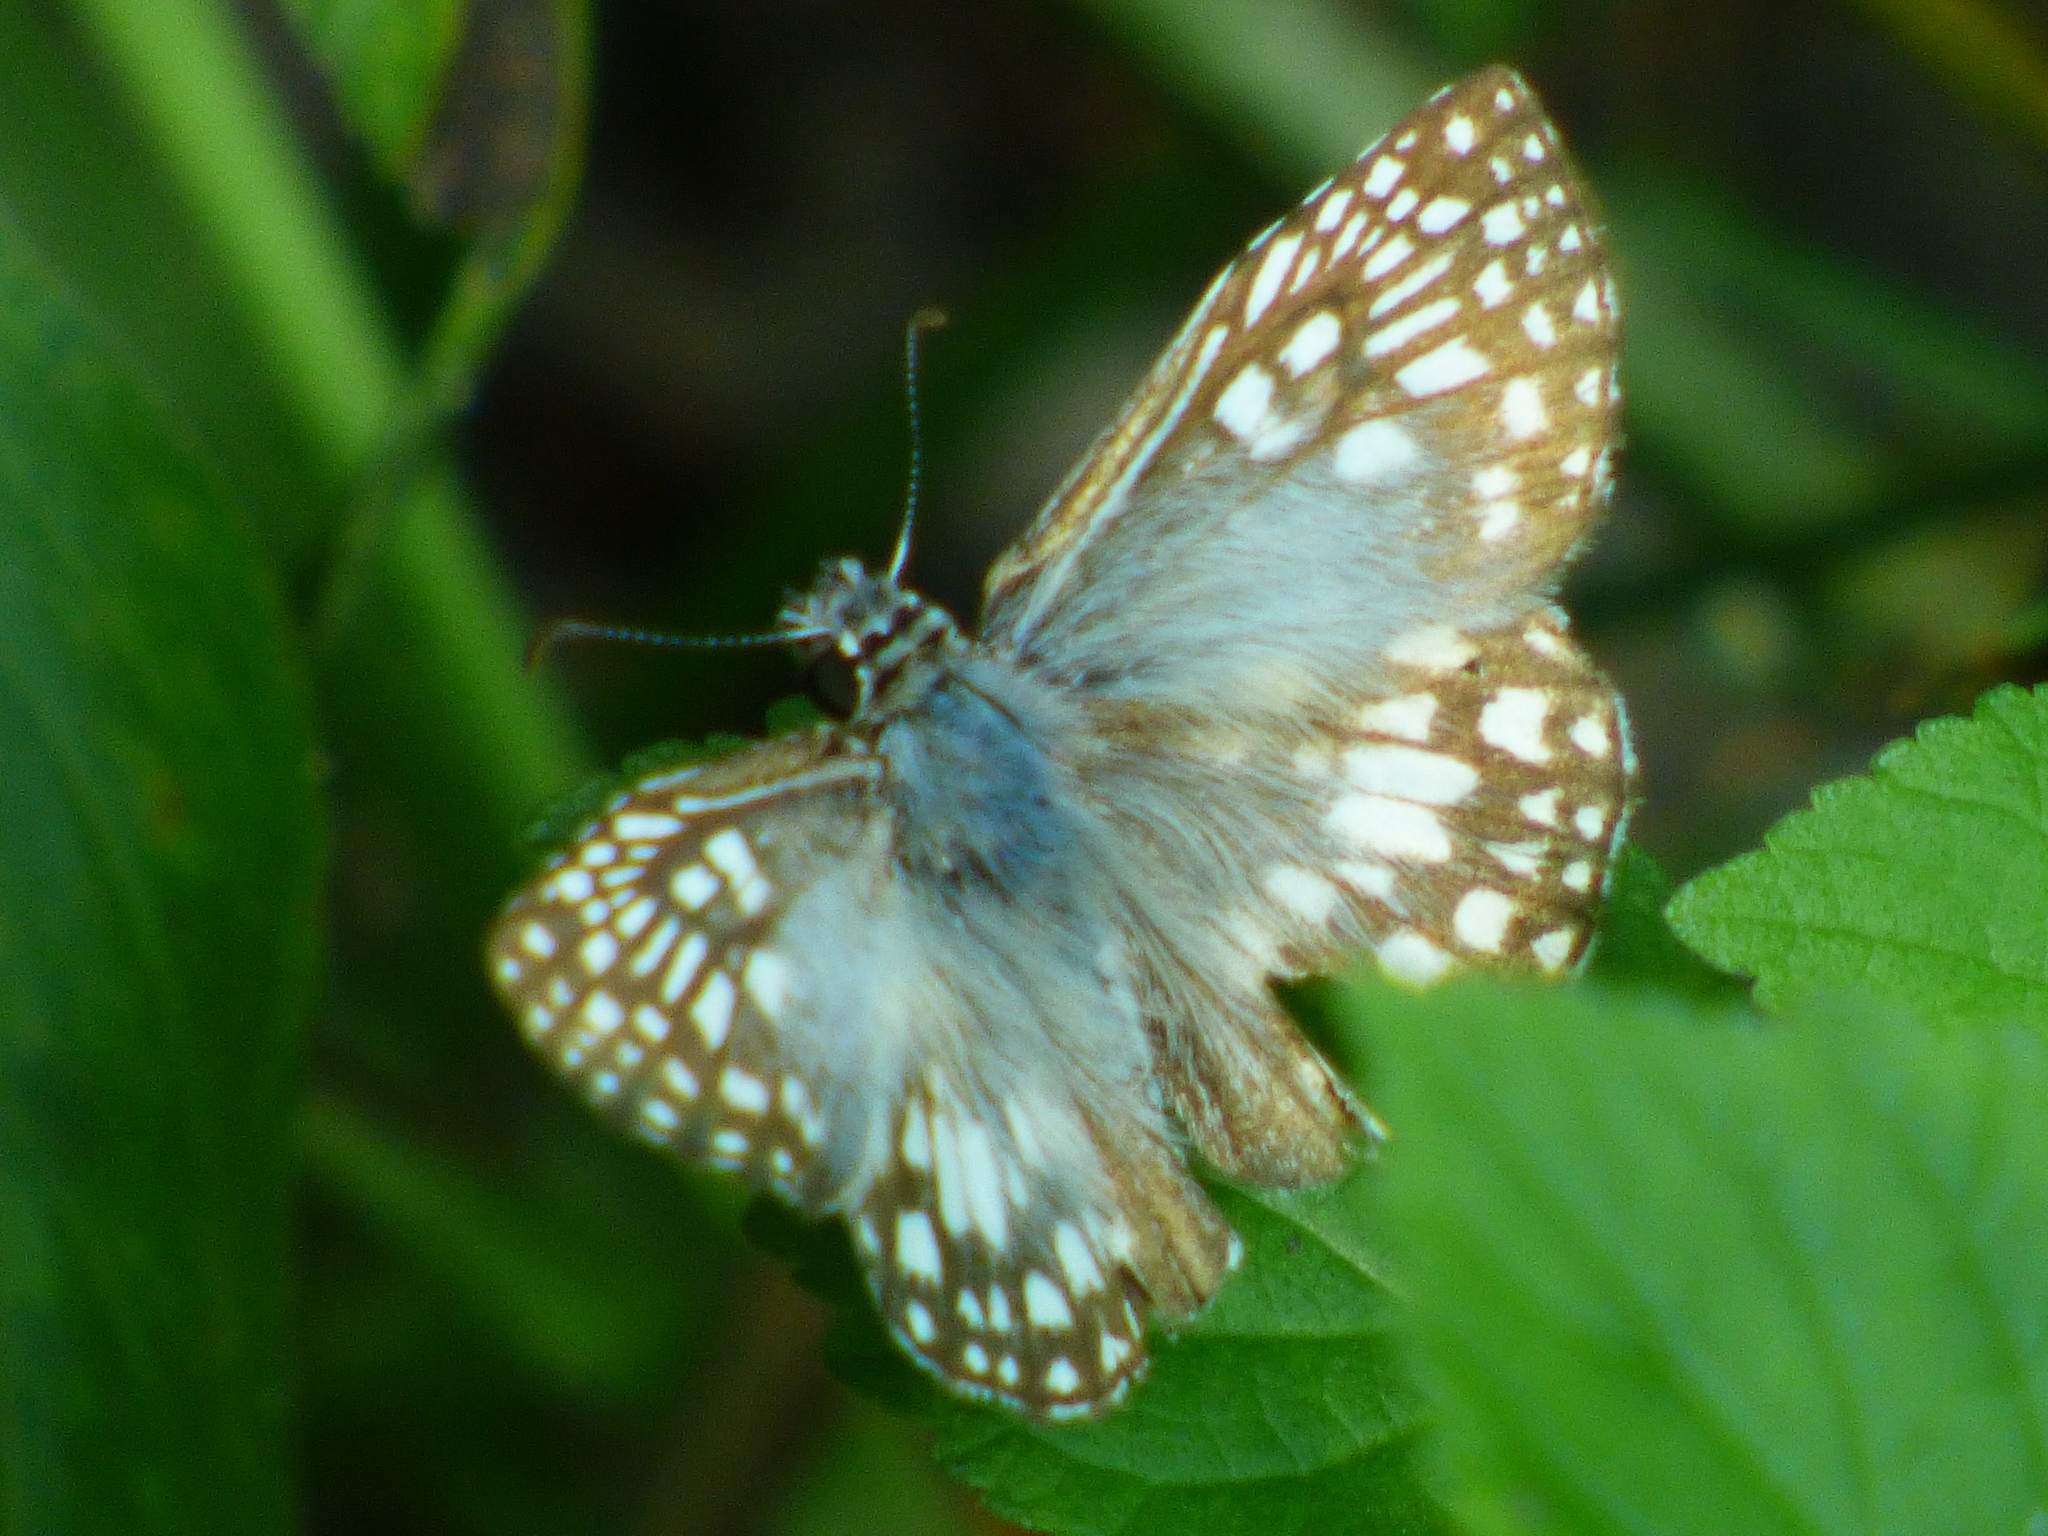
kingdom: Animalia
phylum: Arthropoda
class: Insecta
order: Lepidoptera
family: Hesperiidae
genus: Pyrgus
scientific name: Pyrgus oileus
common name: Tropical checkered-skipper
